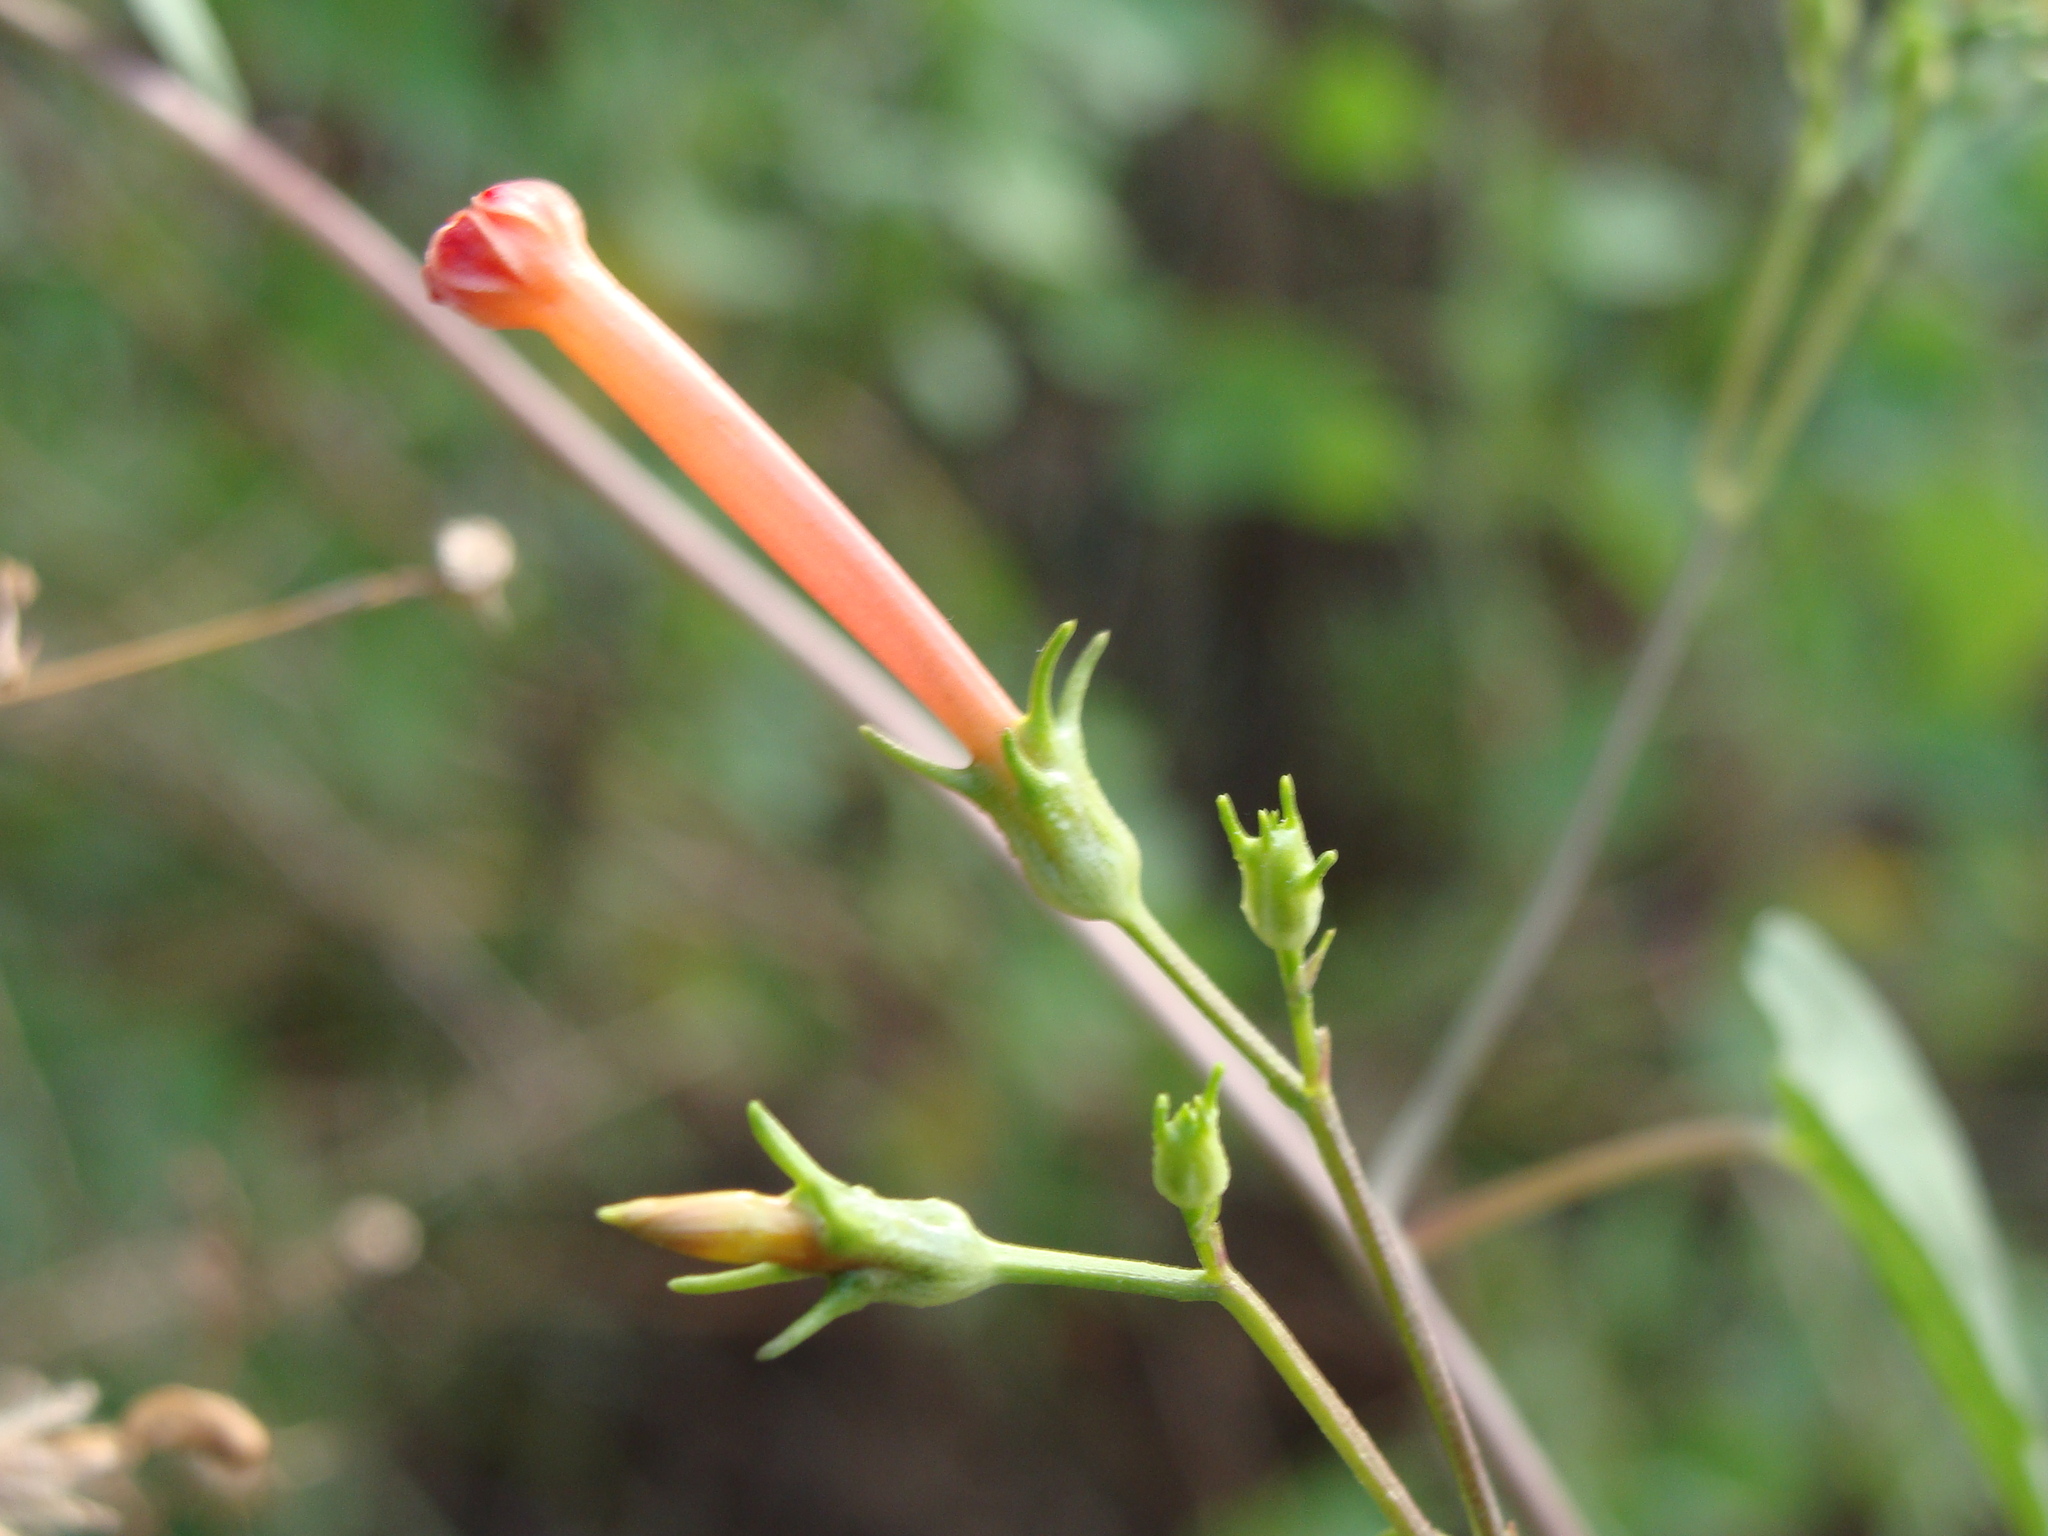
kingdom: Plantae
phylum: Tracheophyta
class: Magnoliopsida
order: Solanales
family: Convolvulaceae
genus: Ipomoea
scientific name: Ipomoea cristulata
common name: Trans-pecos morning-glory
